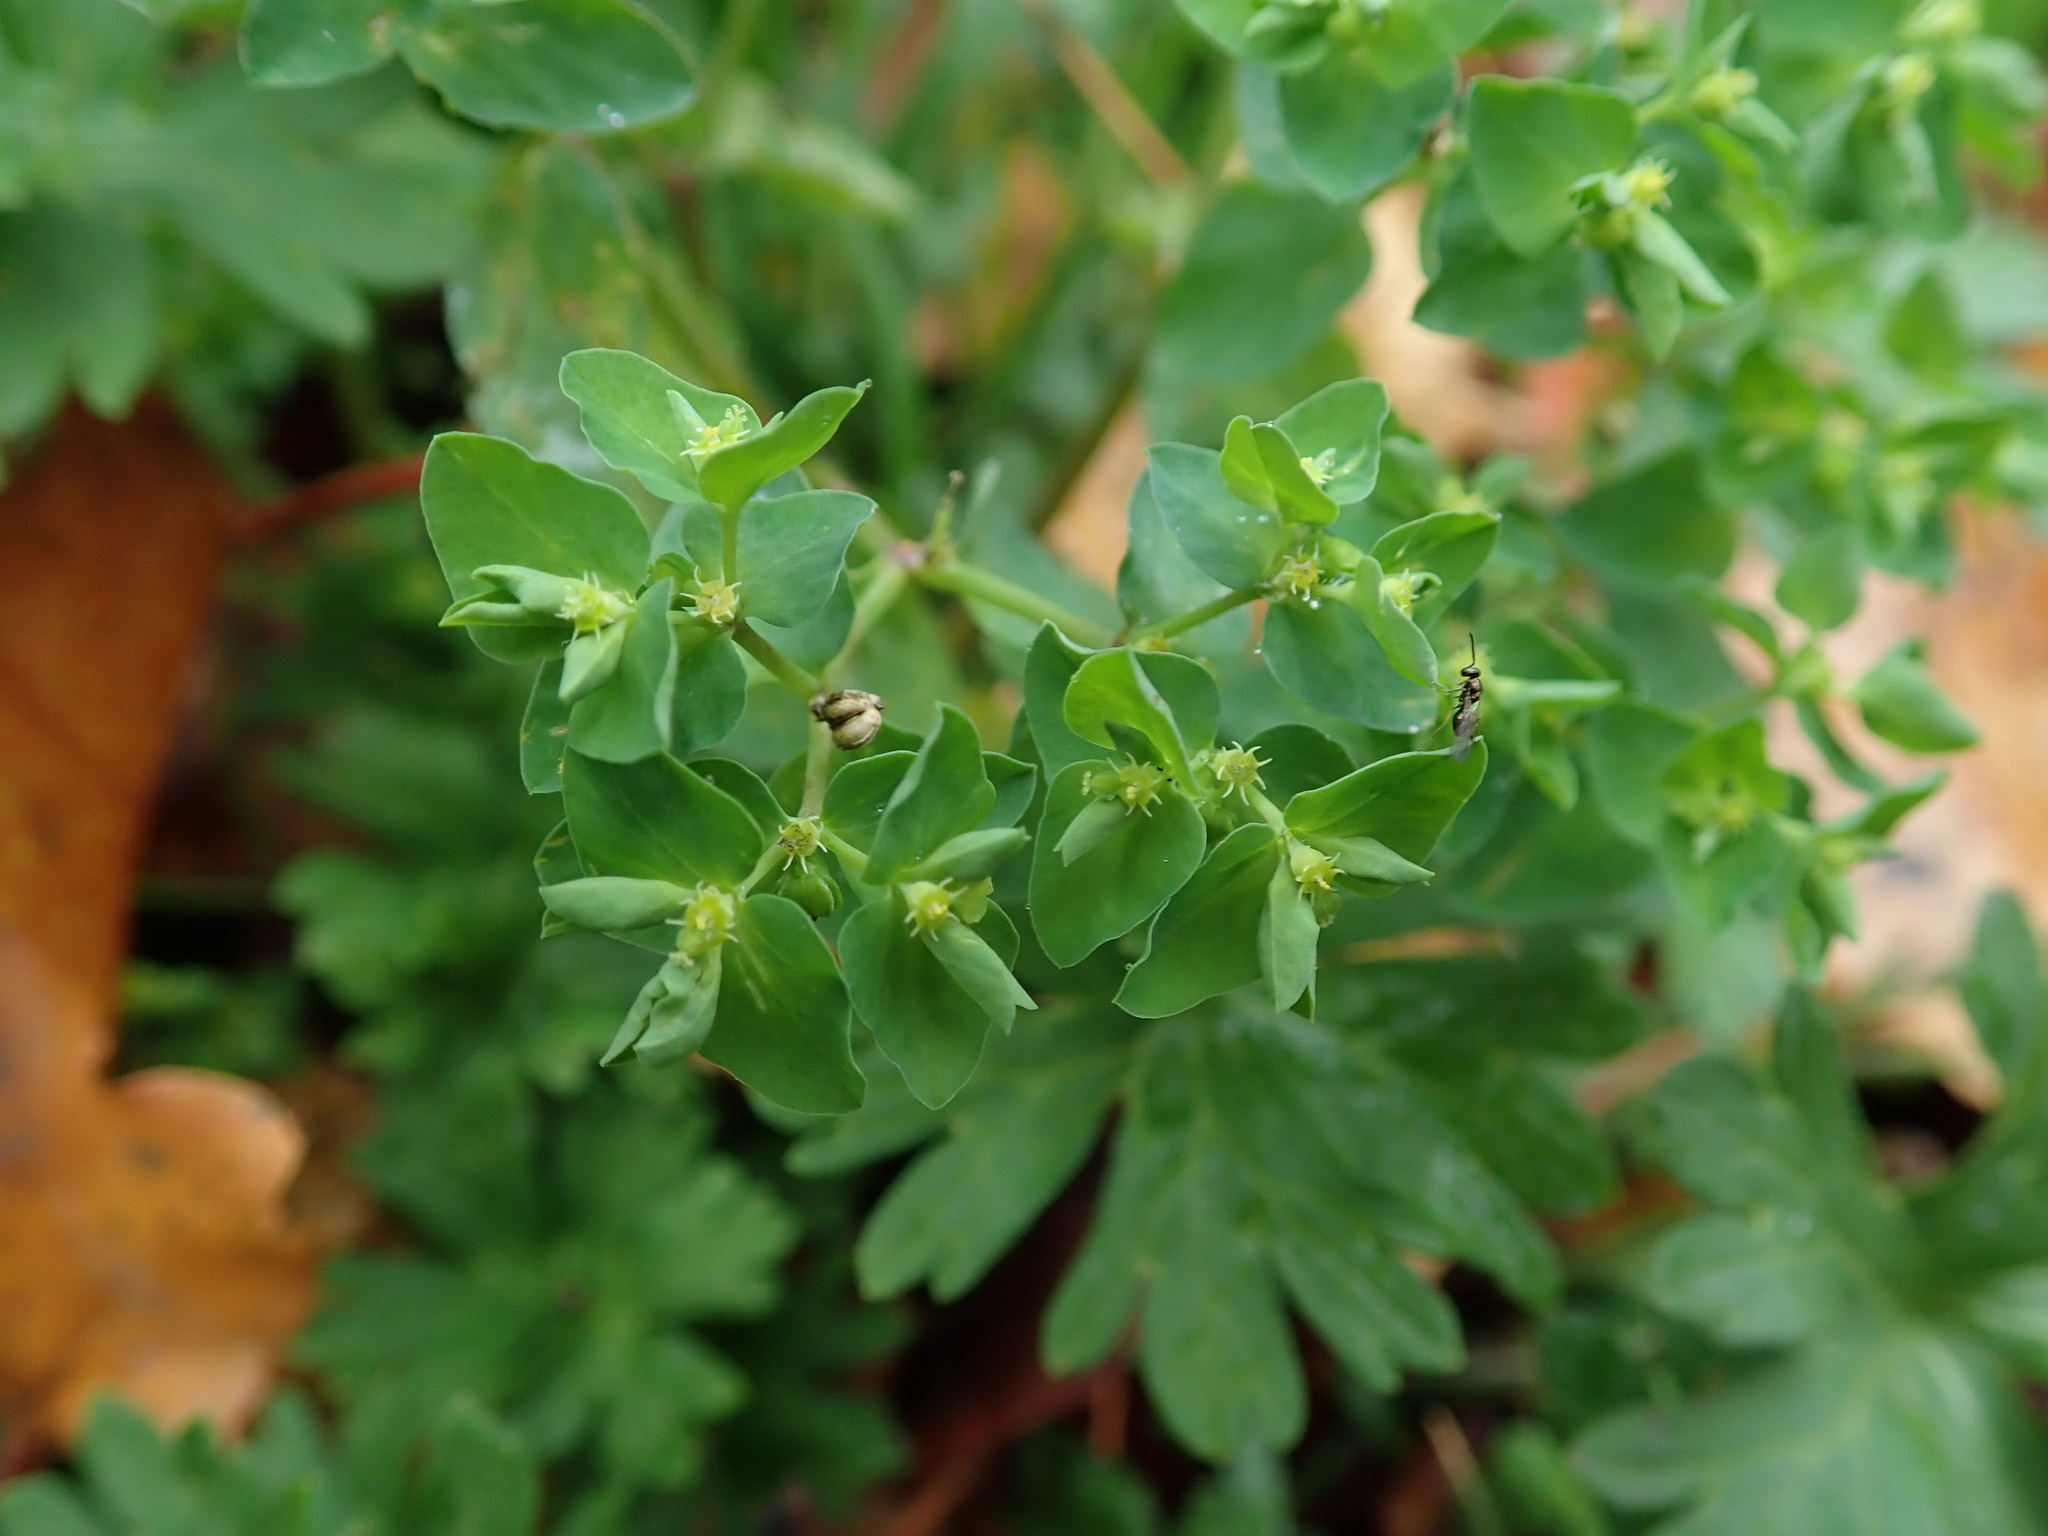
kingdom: Plantae
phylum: Tracheophyta
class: Magnoliopsida
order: Malpighiales
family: Euphorbiaceae
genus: Euphorbia
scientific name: Euphorbia peplus
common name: Petty spurge
